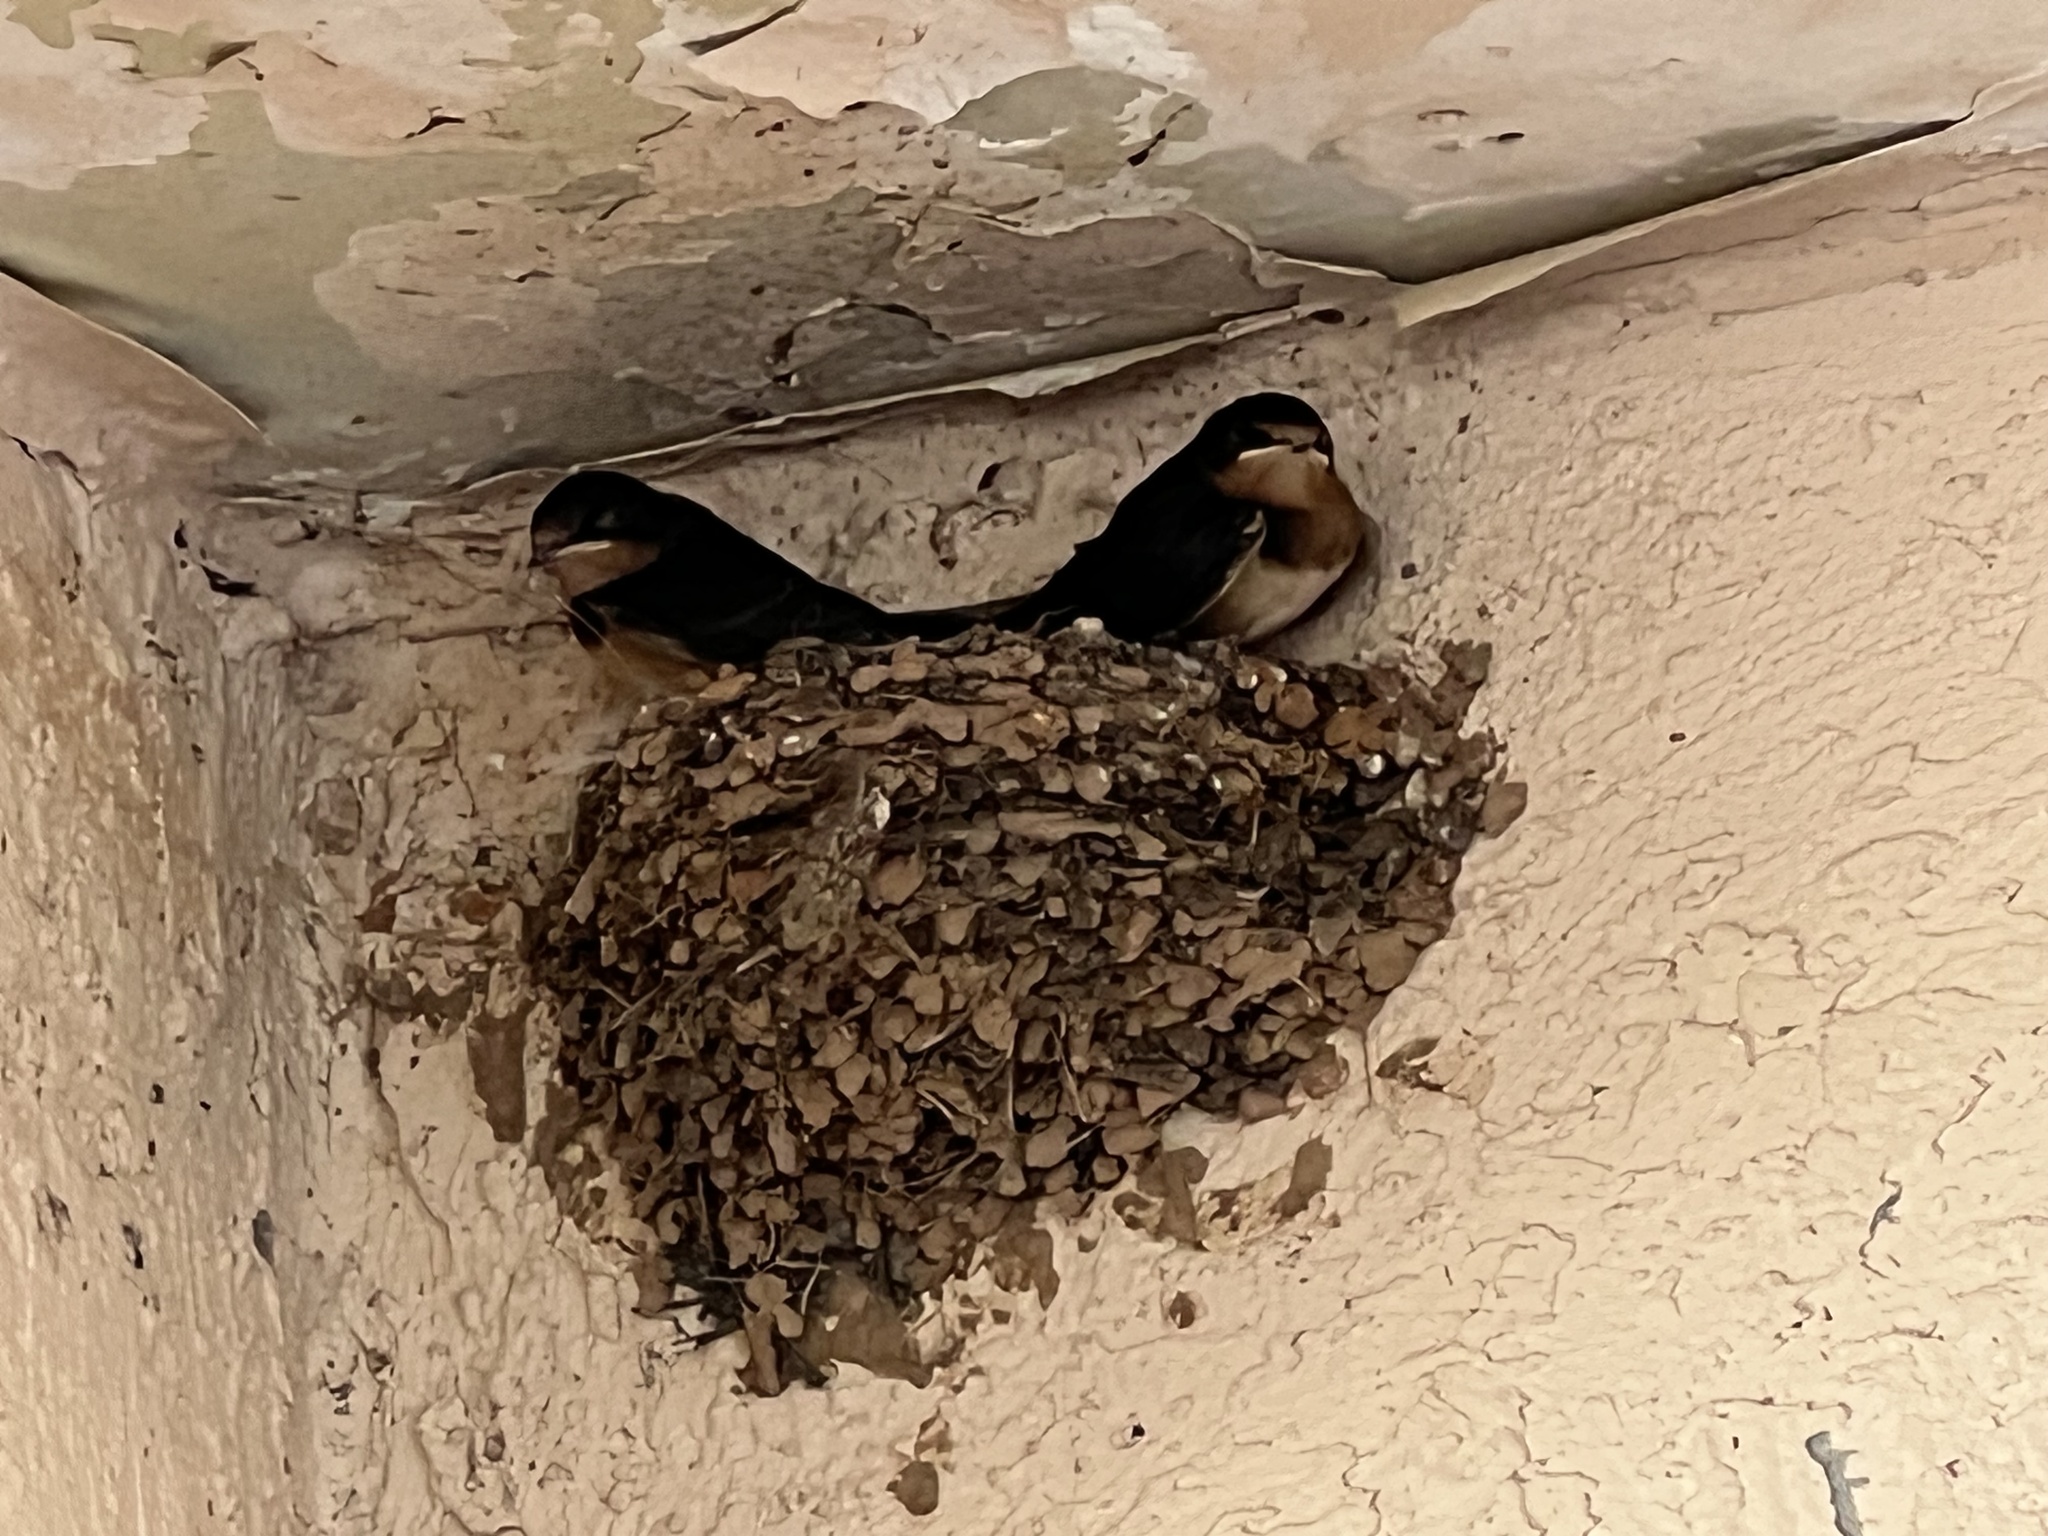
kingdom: Animalia
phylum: Chordata
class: Aves
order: Passeriformes
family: Hirundinidae
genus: Hirundo
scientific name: Hirundo rustica
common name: Barn swallow
